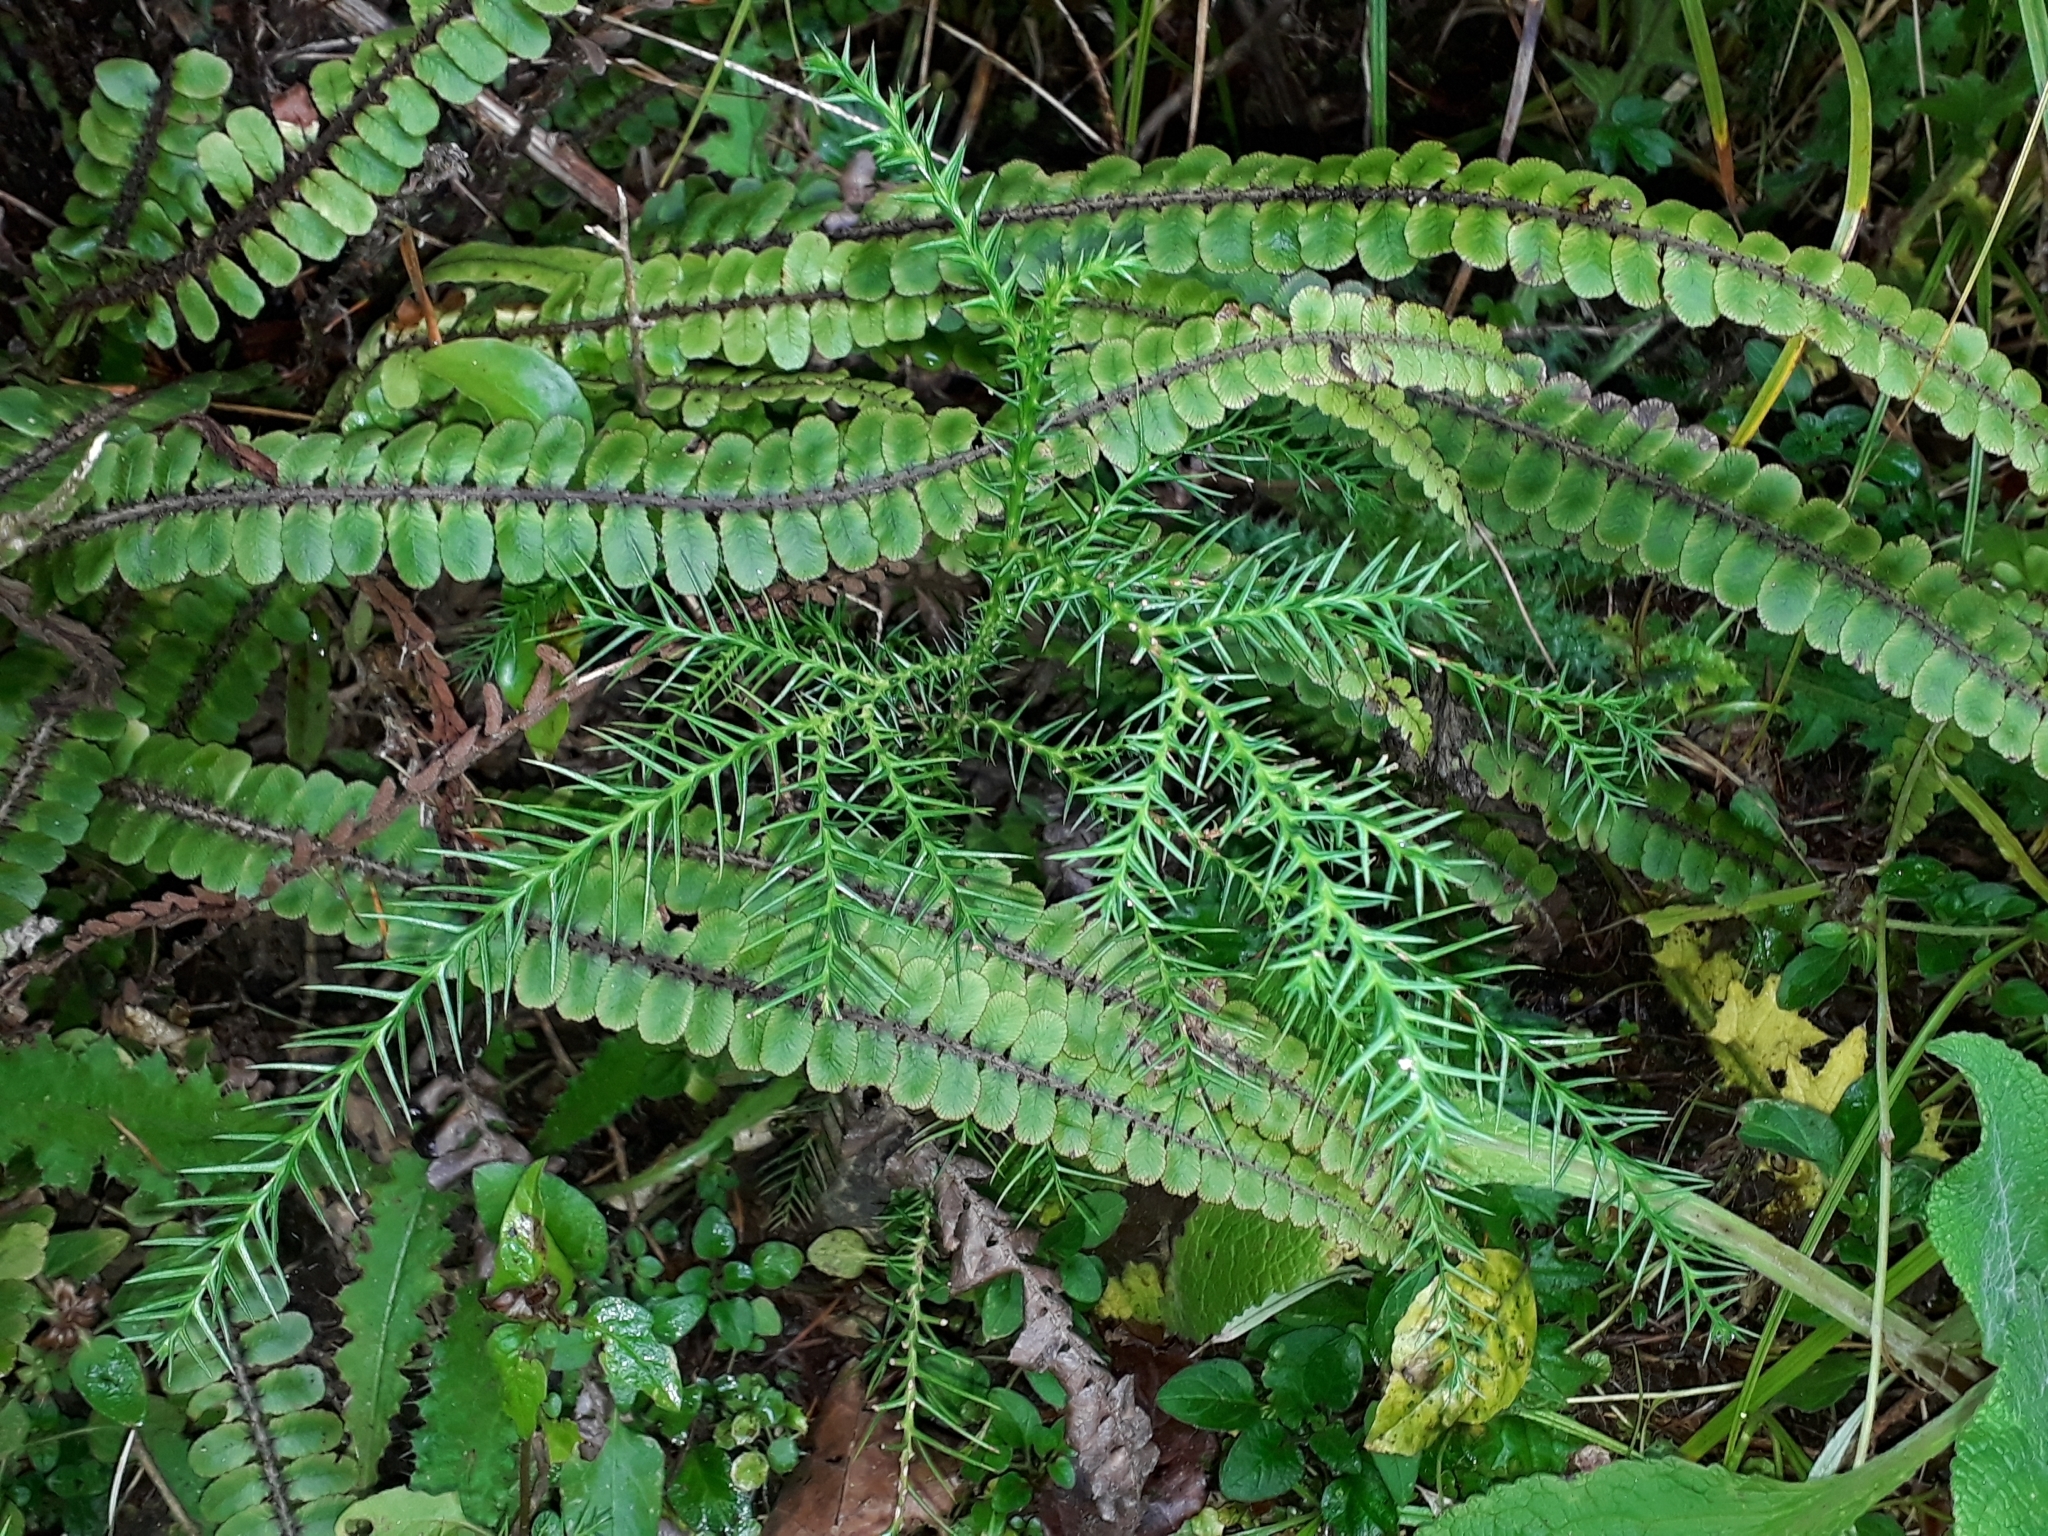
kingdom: Plantae
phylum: Tracheophyta
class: Pinopsida
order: Pinales
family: Cupressaceae
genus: Cryptomeria
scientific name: Cryptomeria japonica
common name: Japanese cedar
